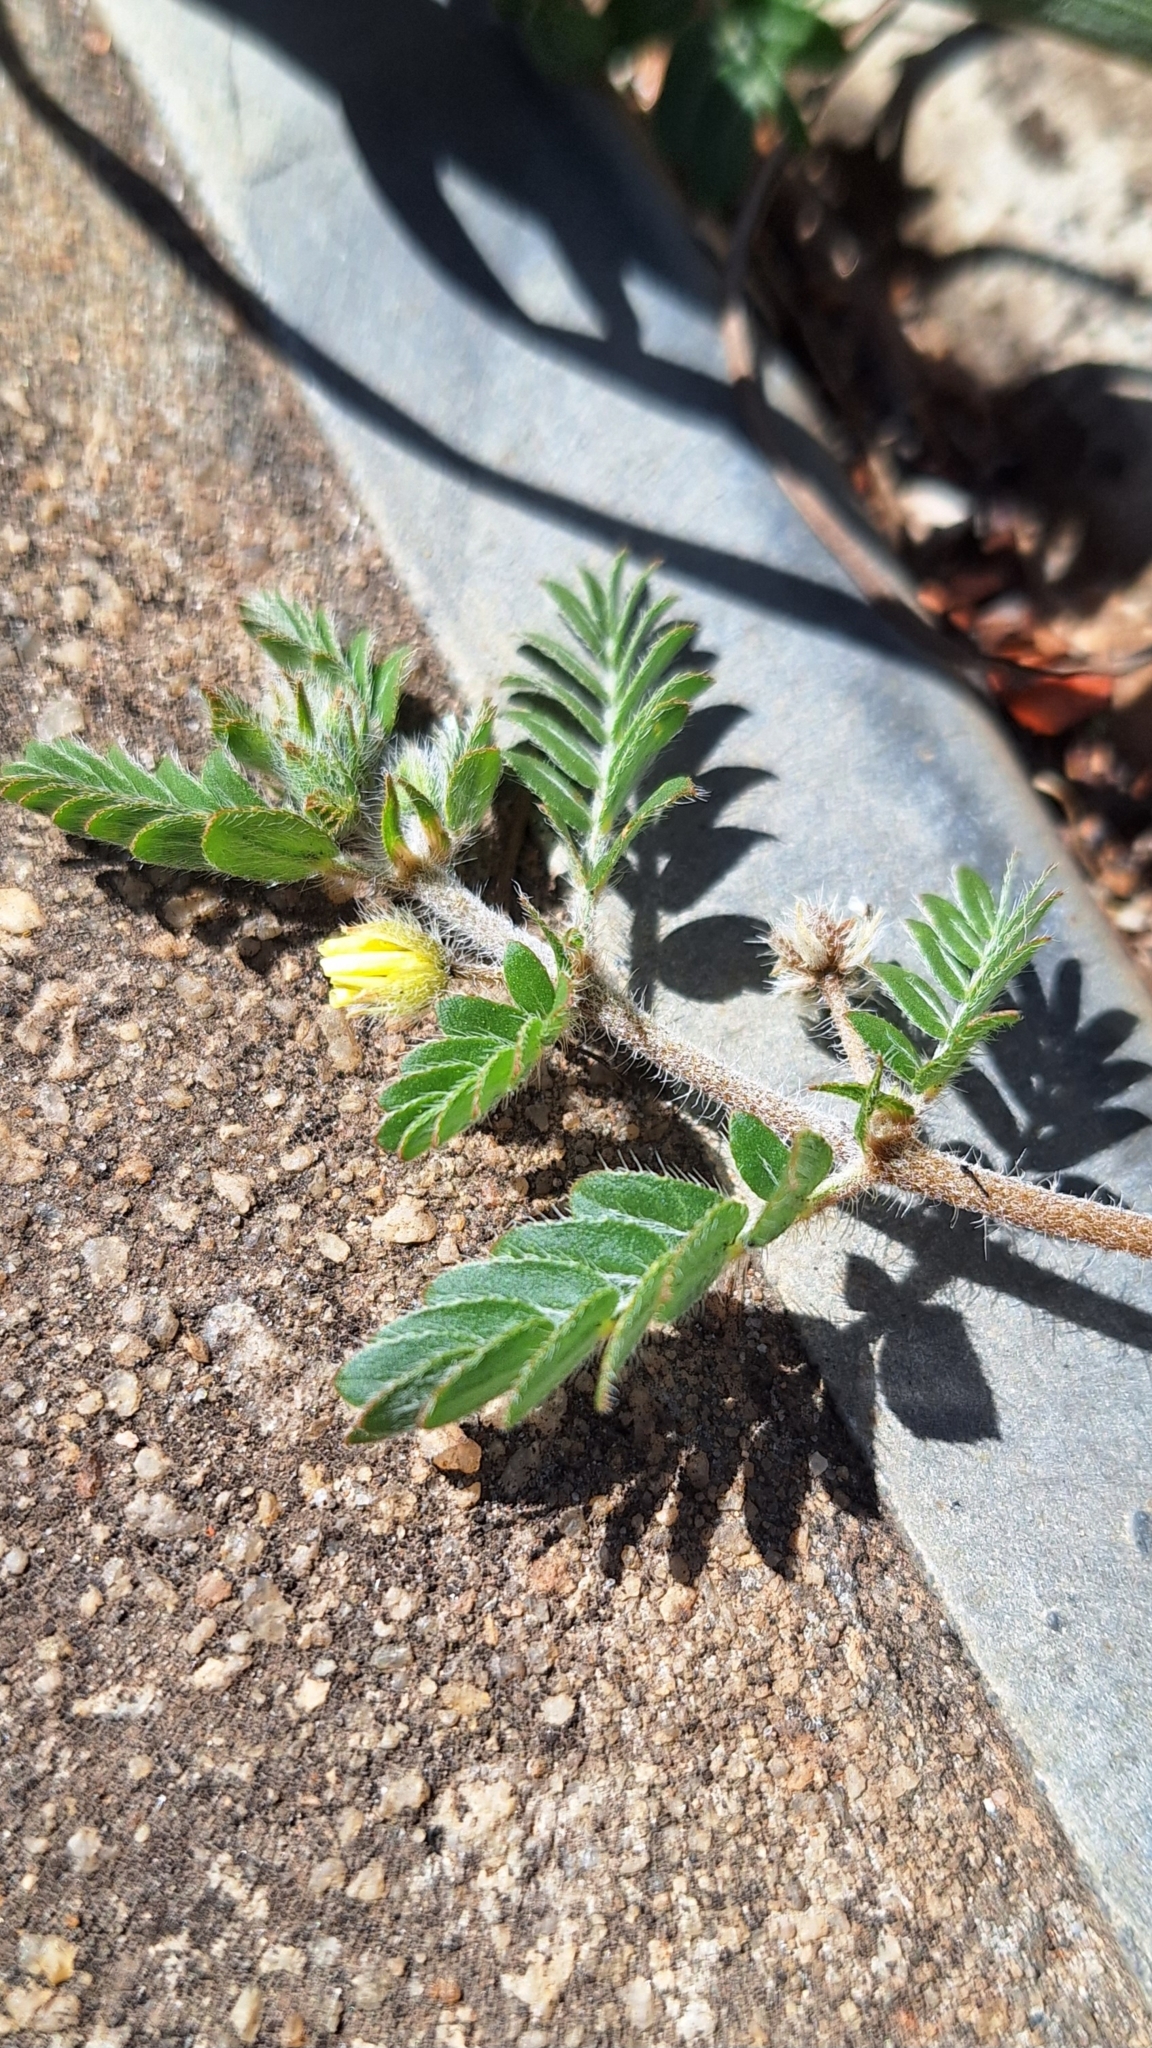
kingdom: Plantae
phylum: Tracheophyta
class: Magnoliopsida
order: Zygophyllales
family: Zygophyllaceae
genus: Tribulus
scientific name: Tribulus terrestris
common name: Puncturevine
